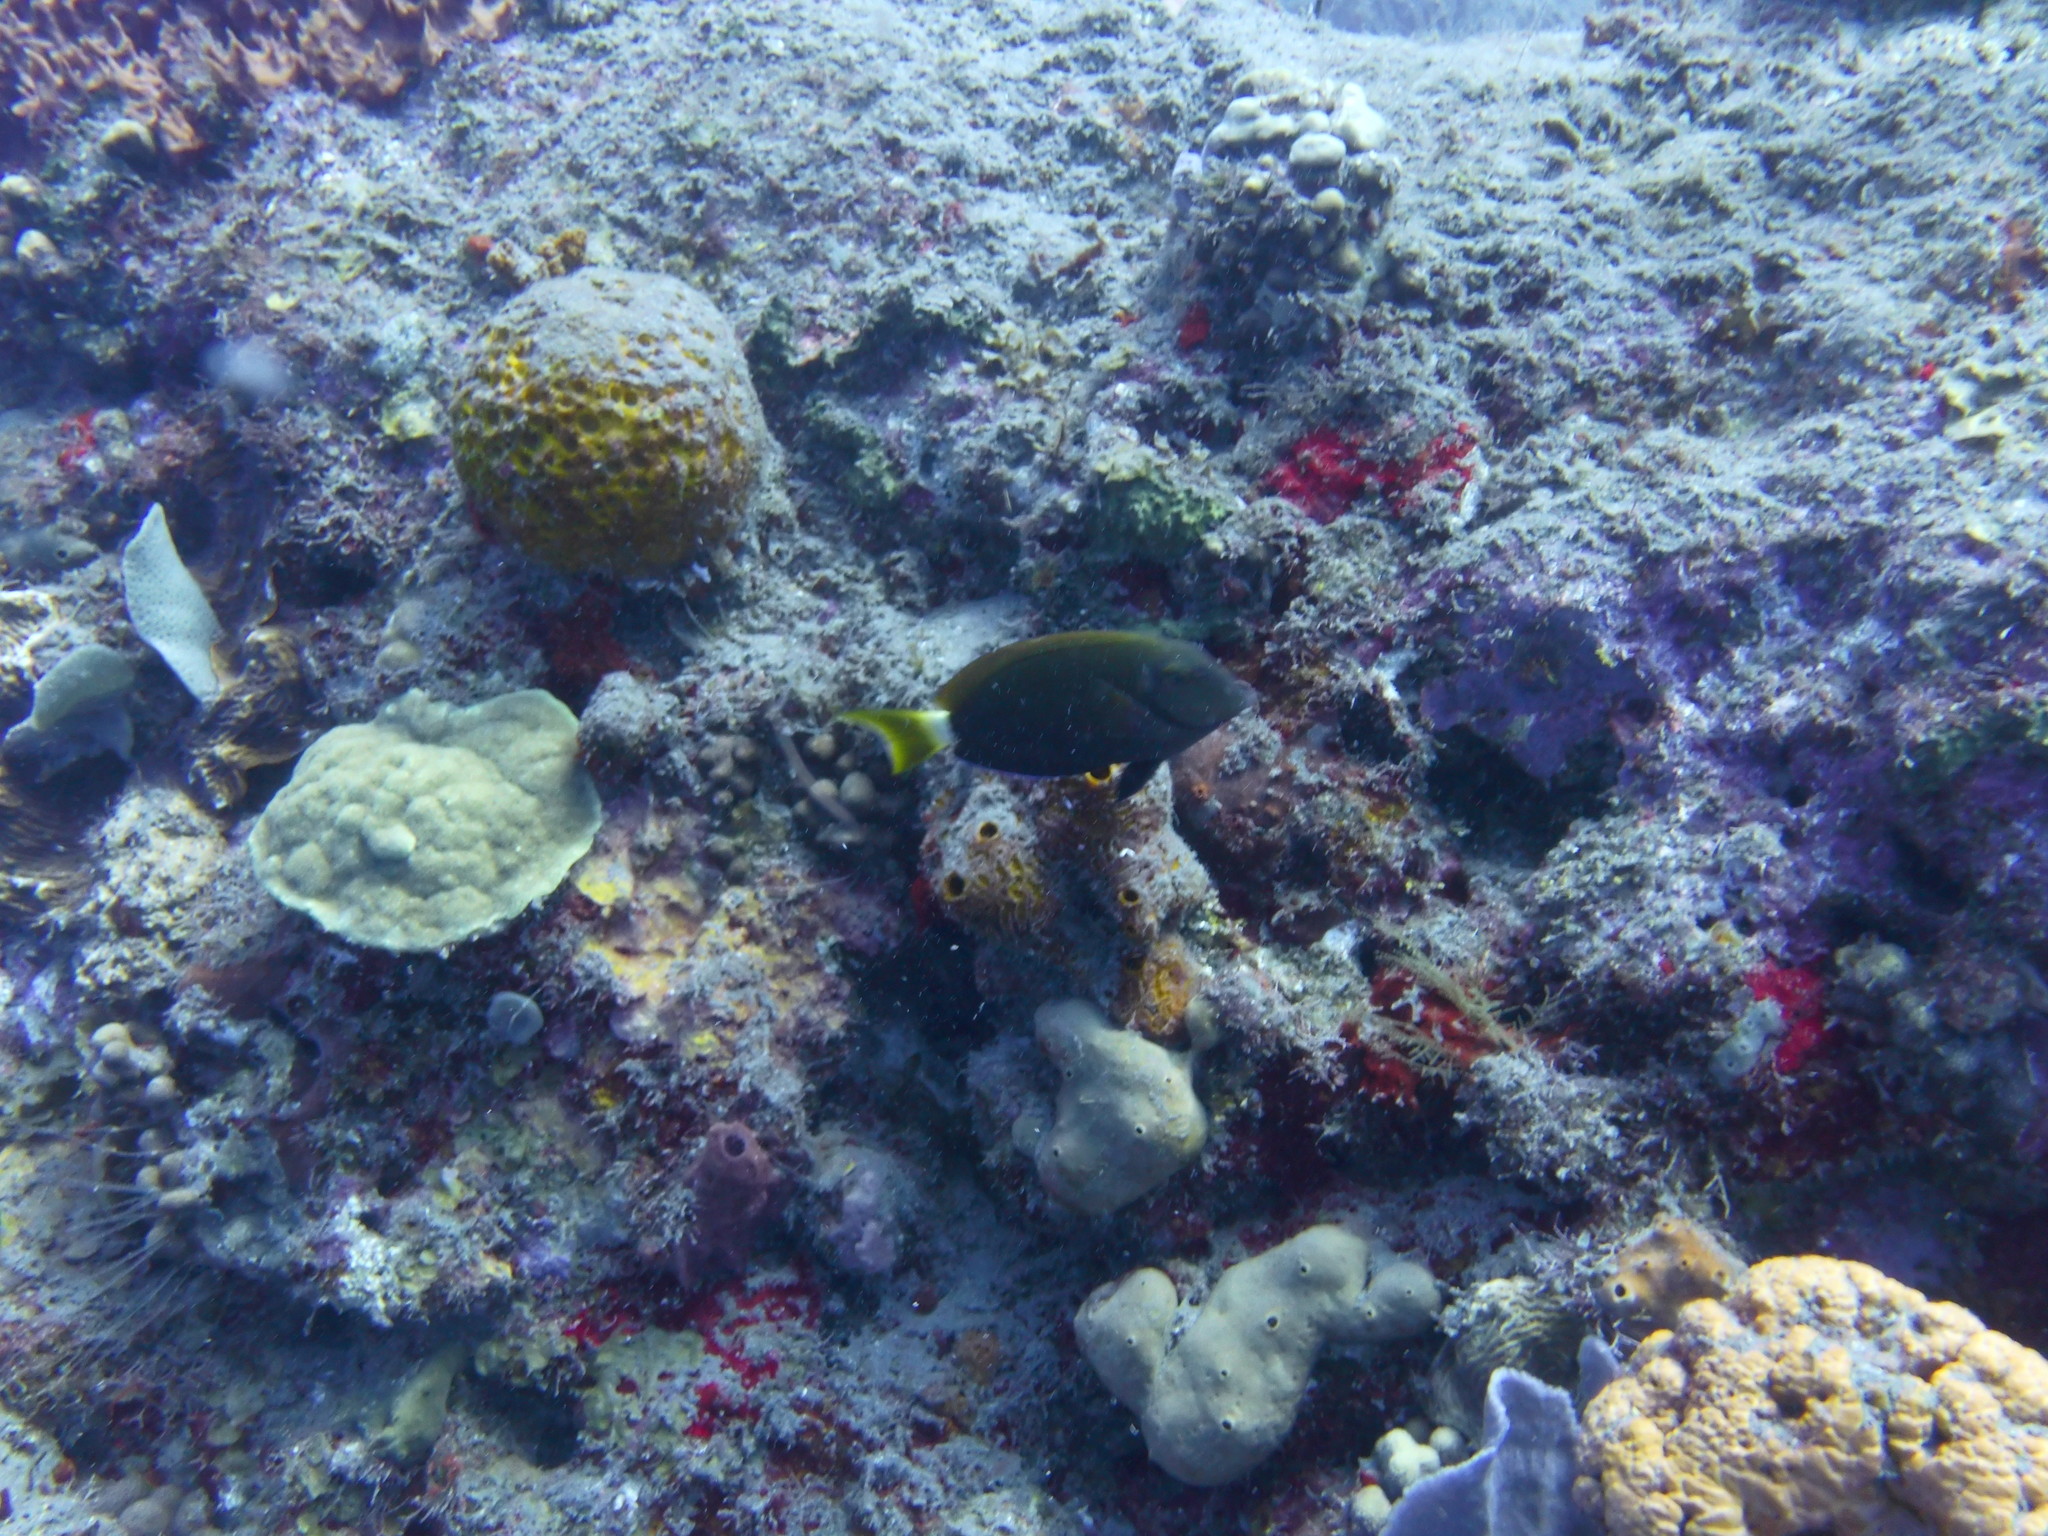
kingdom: Animalia
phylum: Chordata
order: Perciformes
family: Acanthuridae
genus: Acanthurus
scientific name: Acanthurus bahianus
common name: Ocean surgeon
